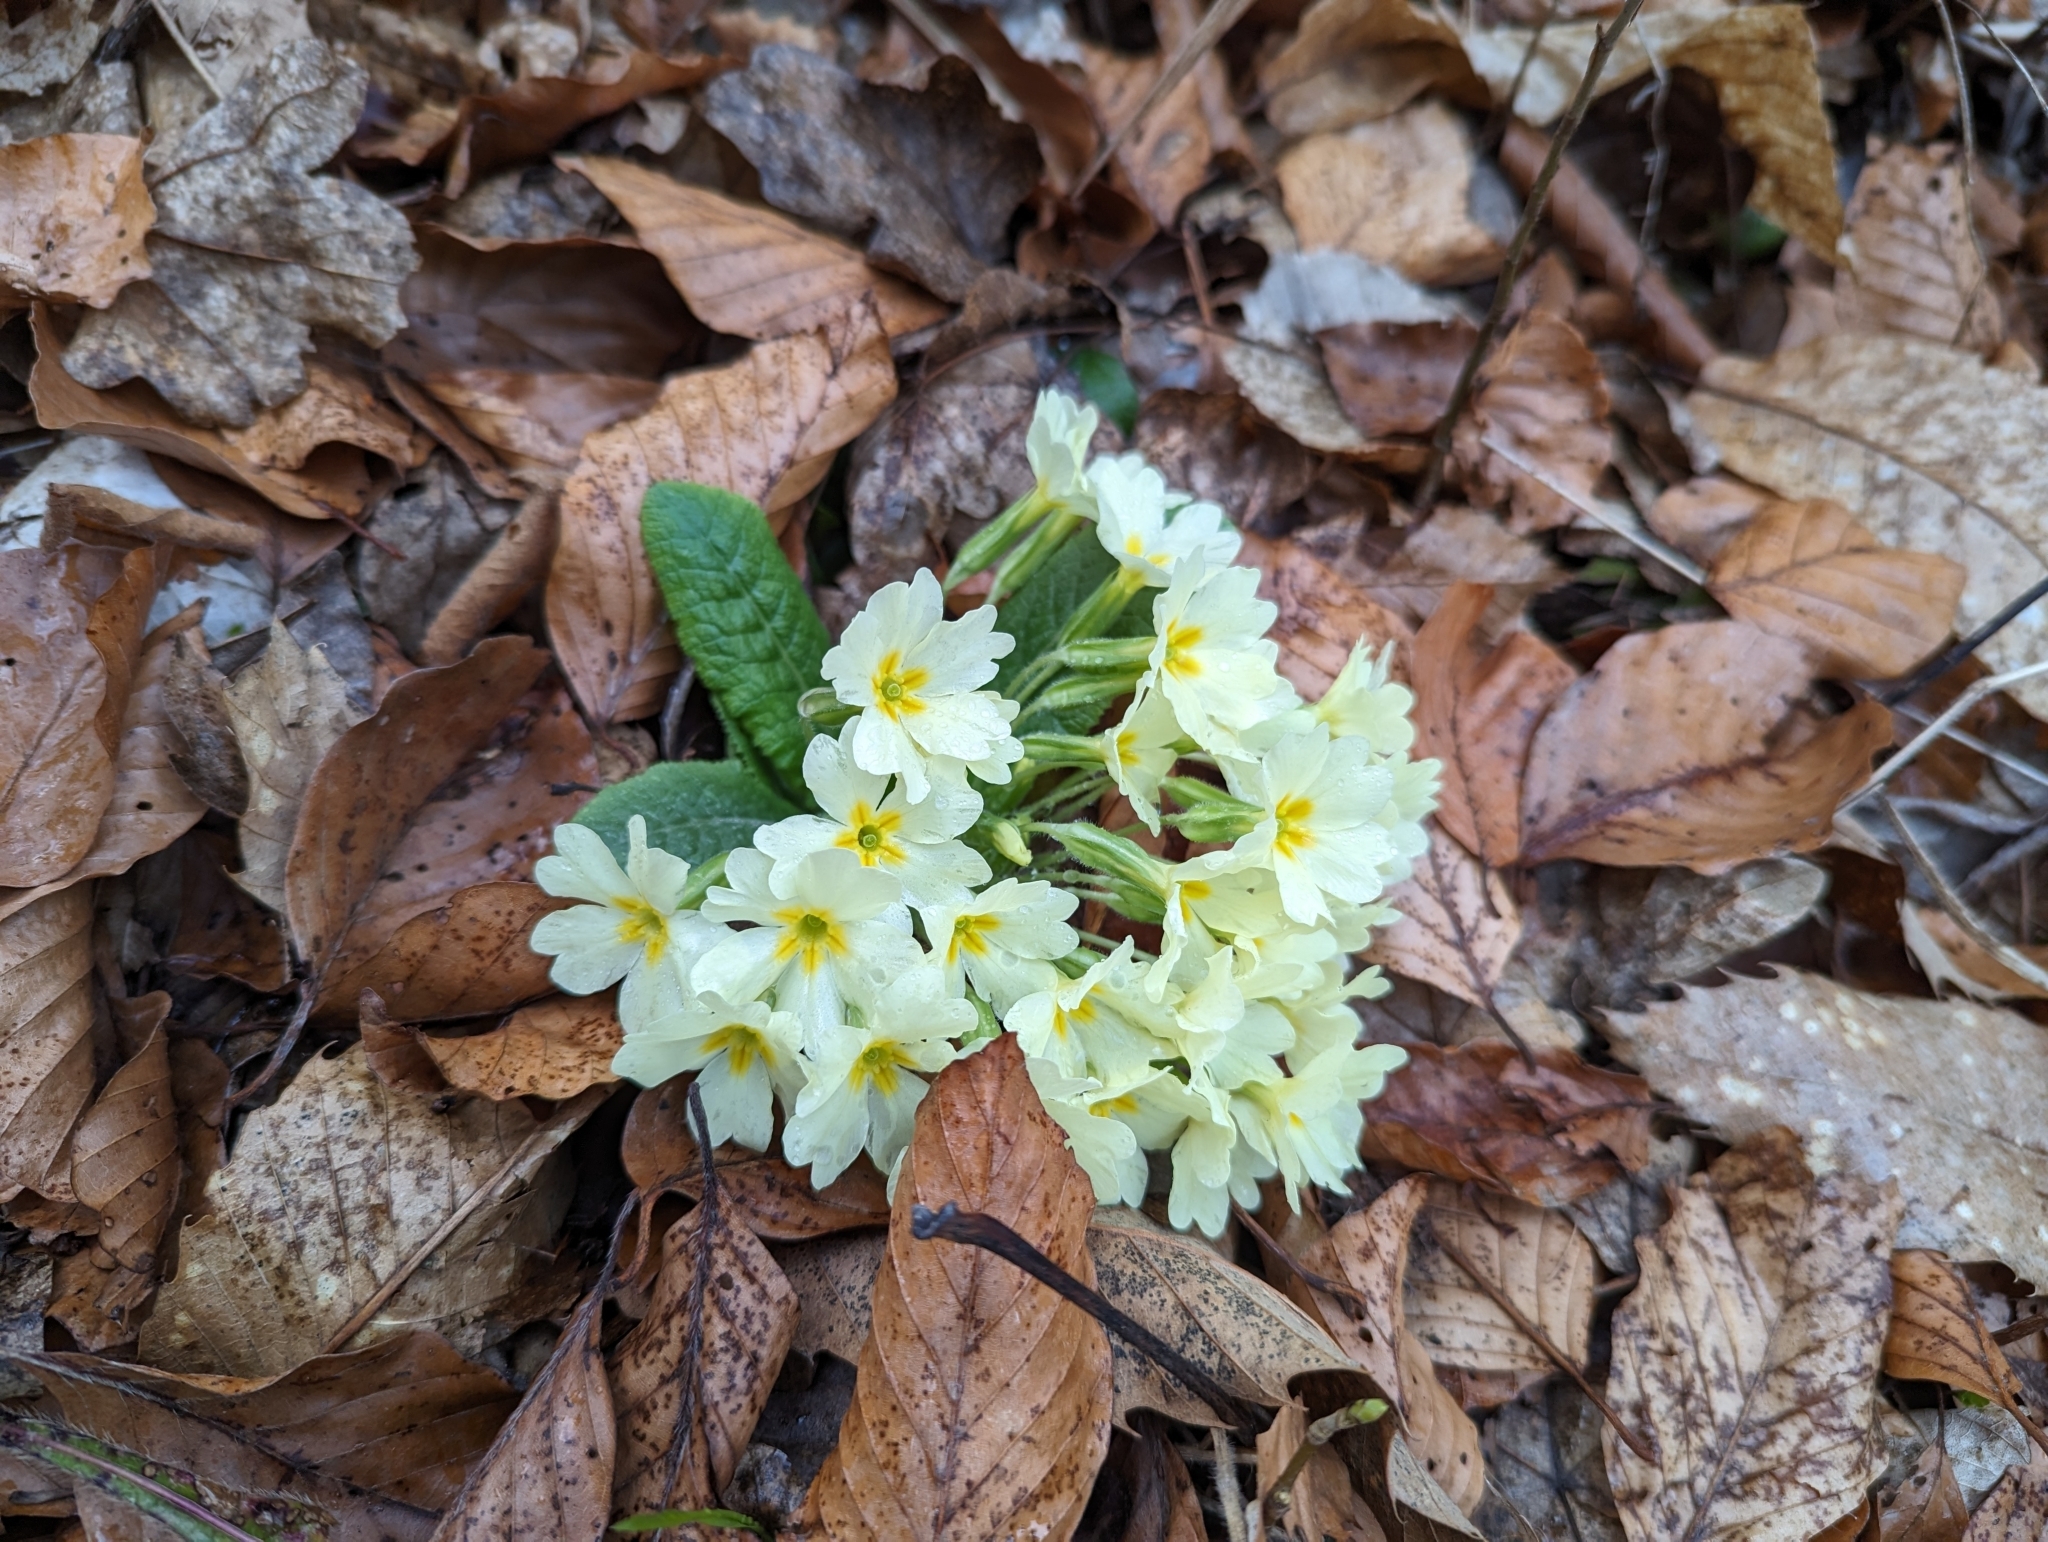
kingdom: Plantae
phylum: Tracheophyta
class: Magnoliopsida
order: Ericales
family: Primulaceae
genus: Primula
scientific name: Primula vulgaris
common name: Primrose
